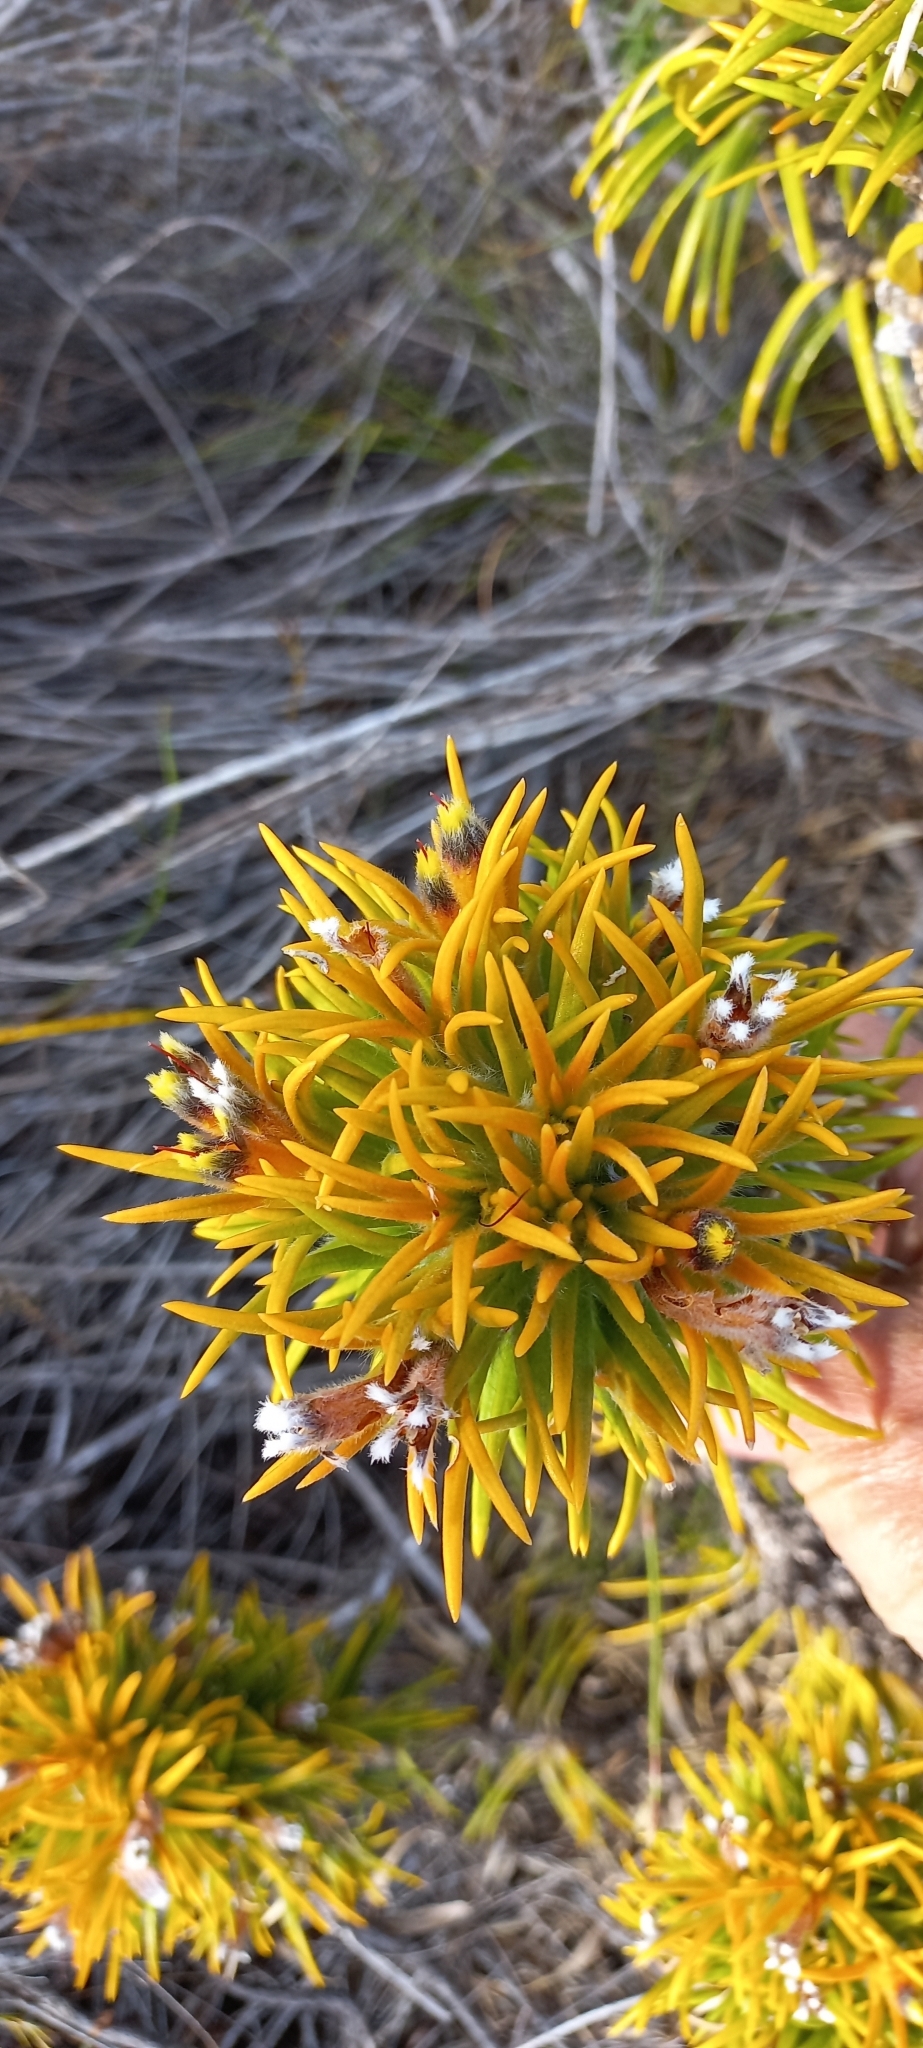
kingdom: Plantae
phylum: Tracheophyta
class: Magnoliopsida
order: Lamiales
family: Stilbaceae
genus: Retzia
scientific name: Retzia capensis
